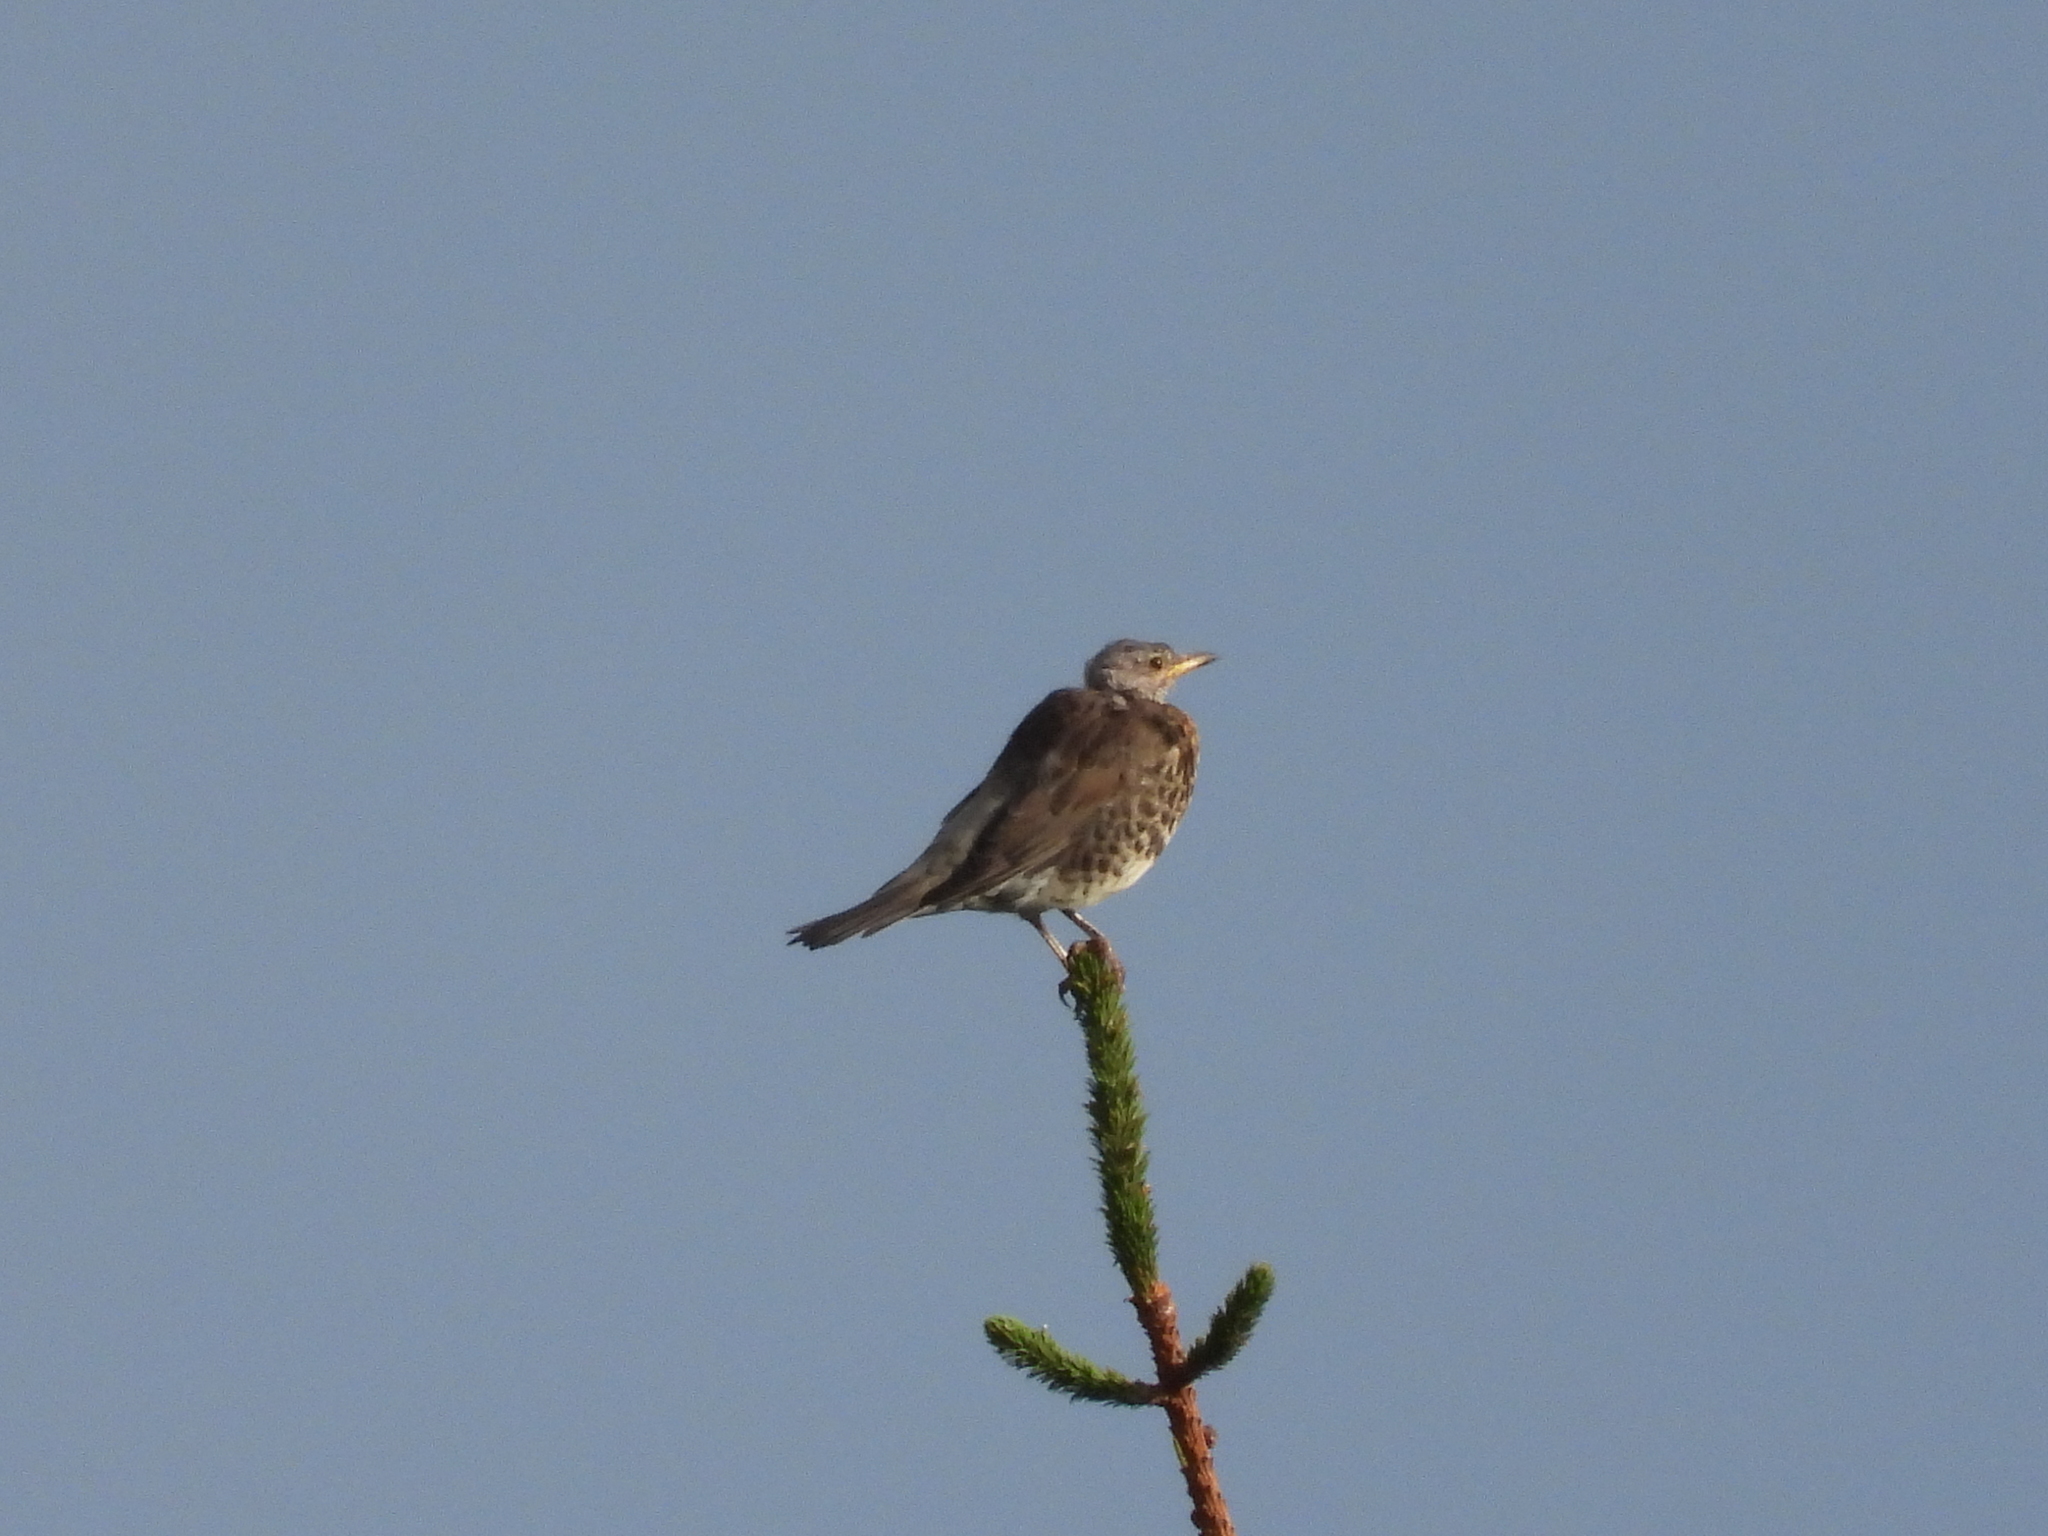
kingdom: Animalia
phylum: Chordata
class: Aves
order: Passeriformes
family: Turdidae
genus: Turdus
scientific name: Turdus pilaris
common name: Fieldfare
